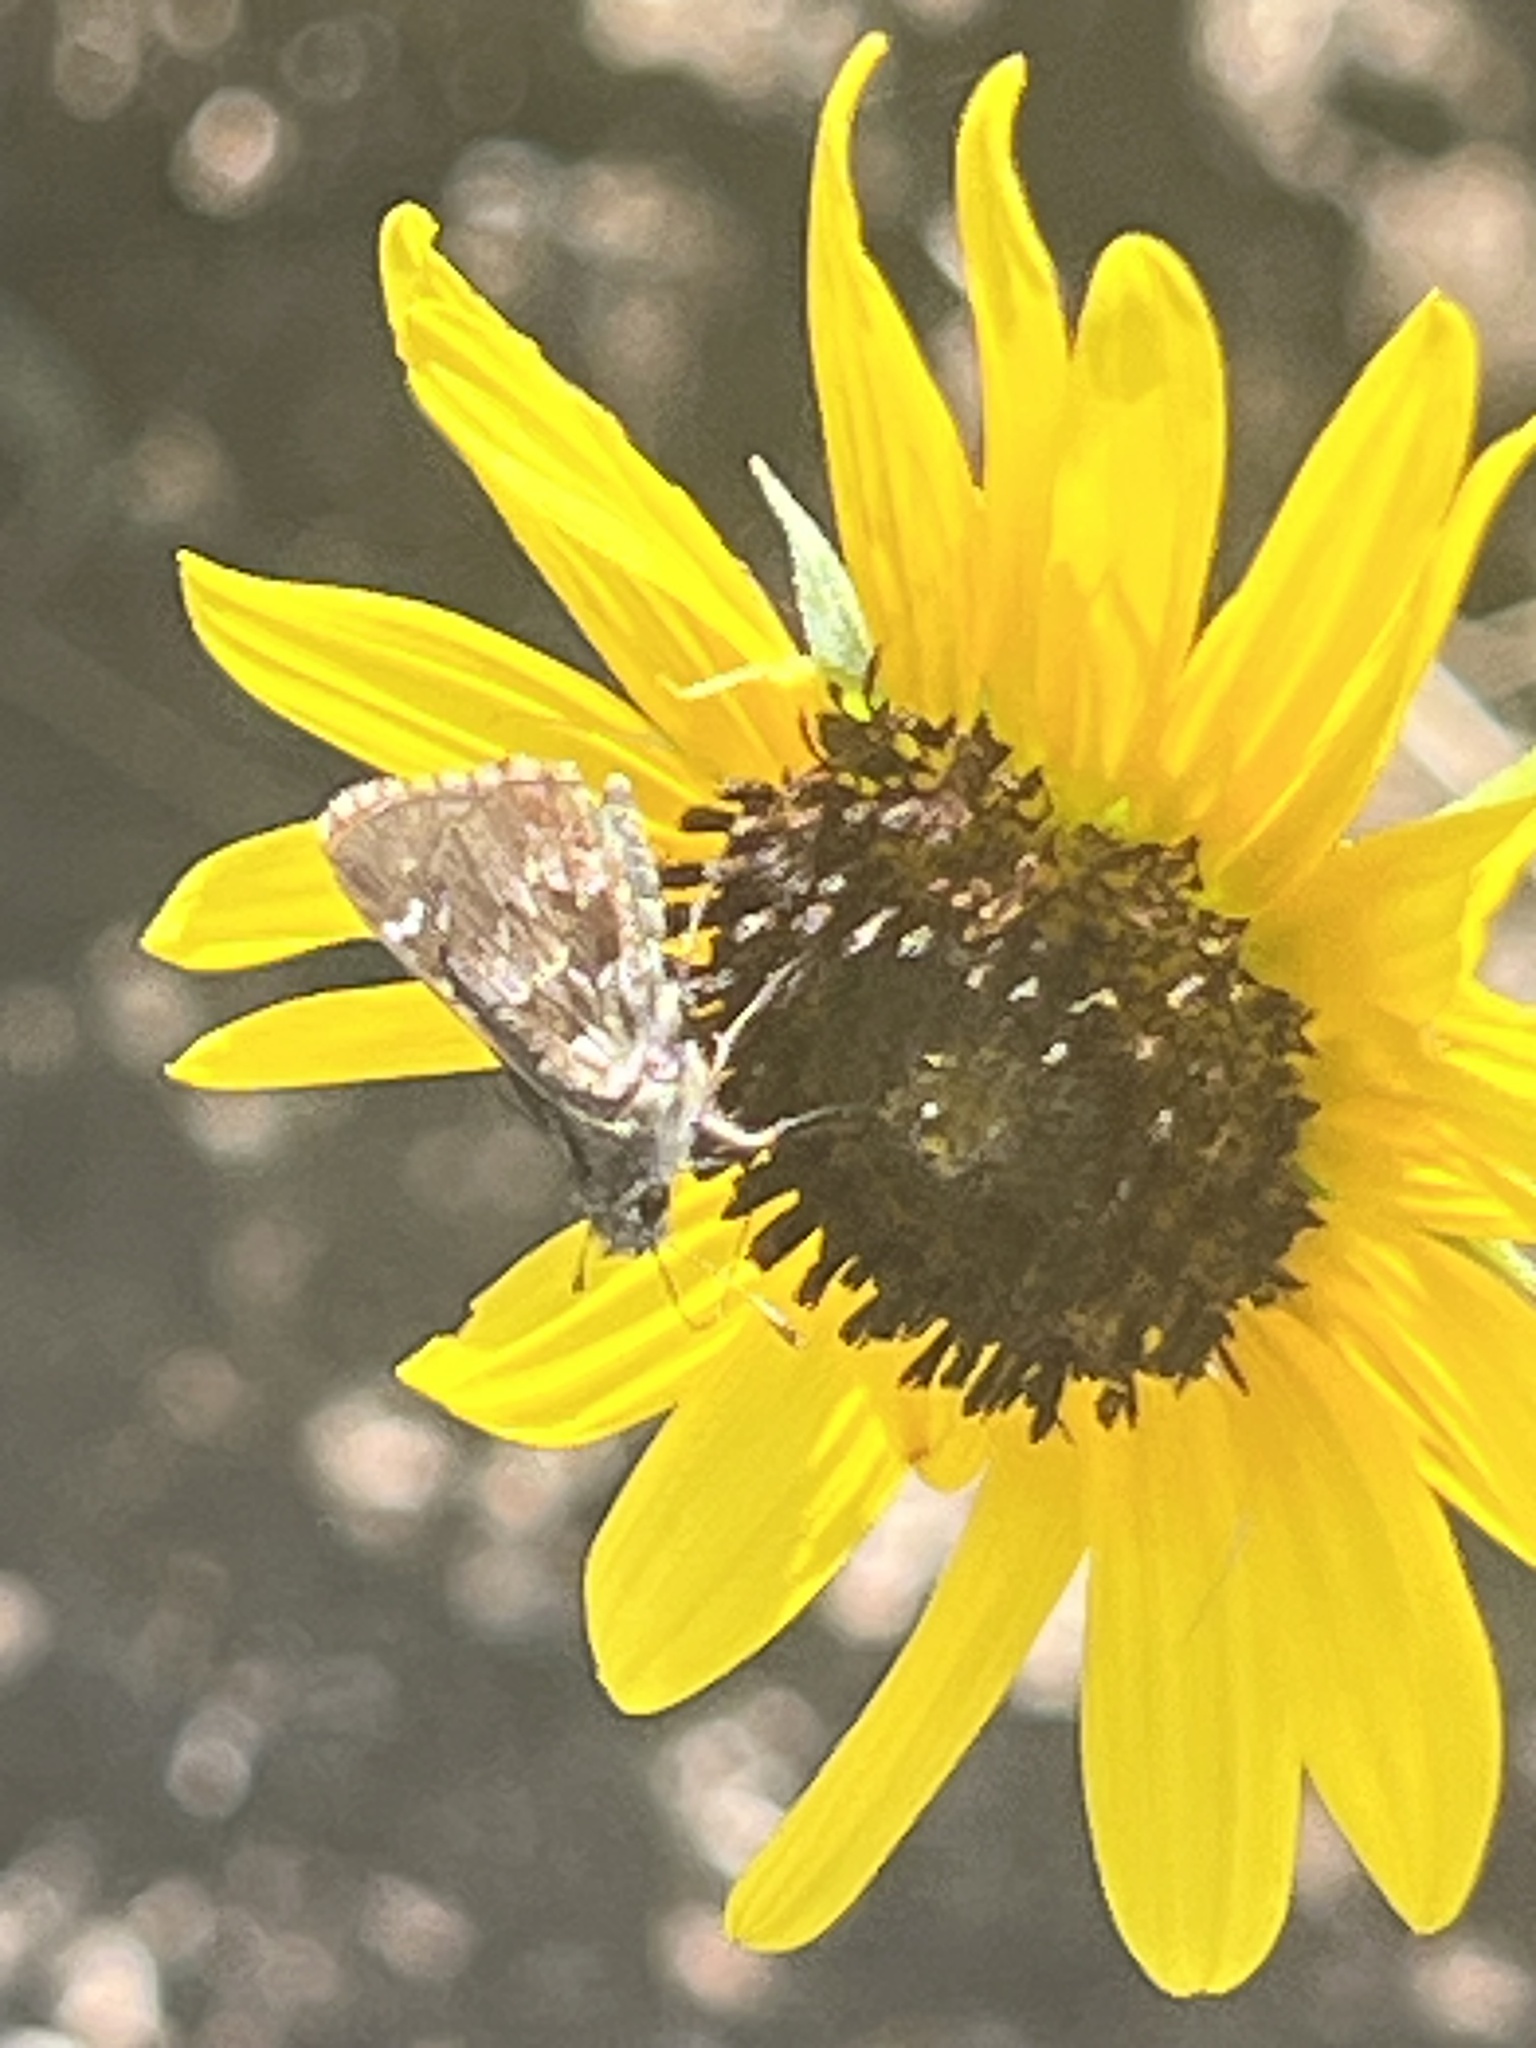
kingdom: Animalia
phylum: Arthropoda
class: Insecta
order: Lepidoptera
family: Hesperiidae
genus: Mastor
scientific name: Mastor nysa
